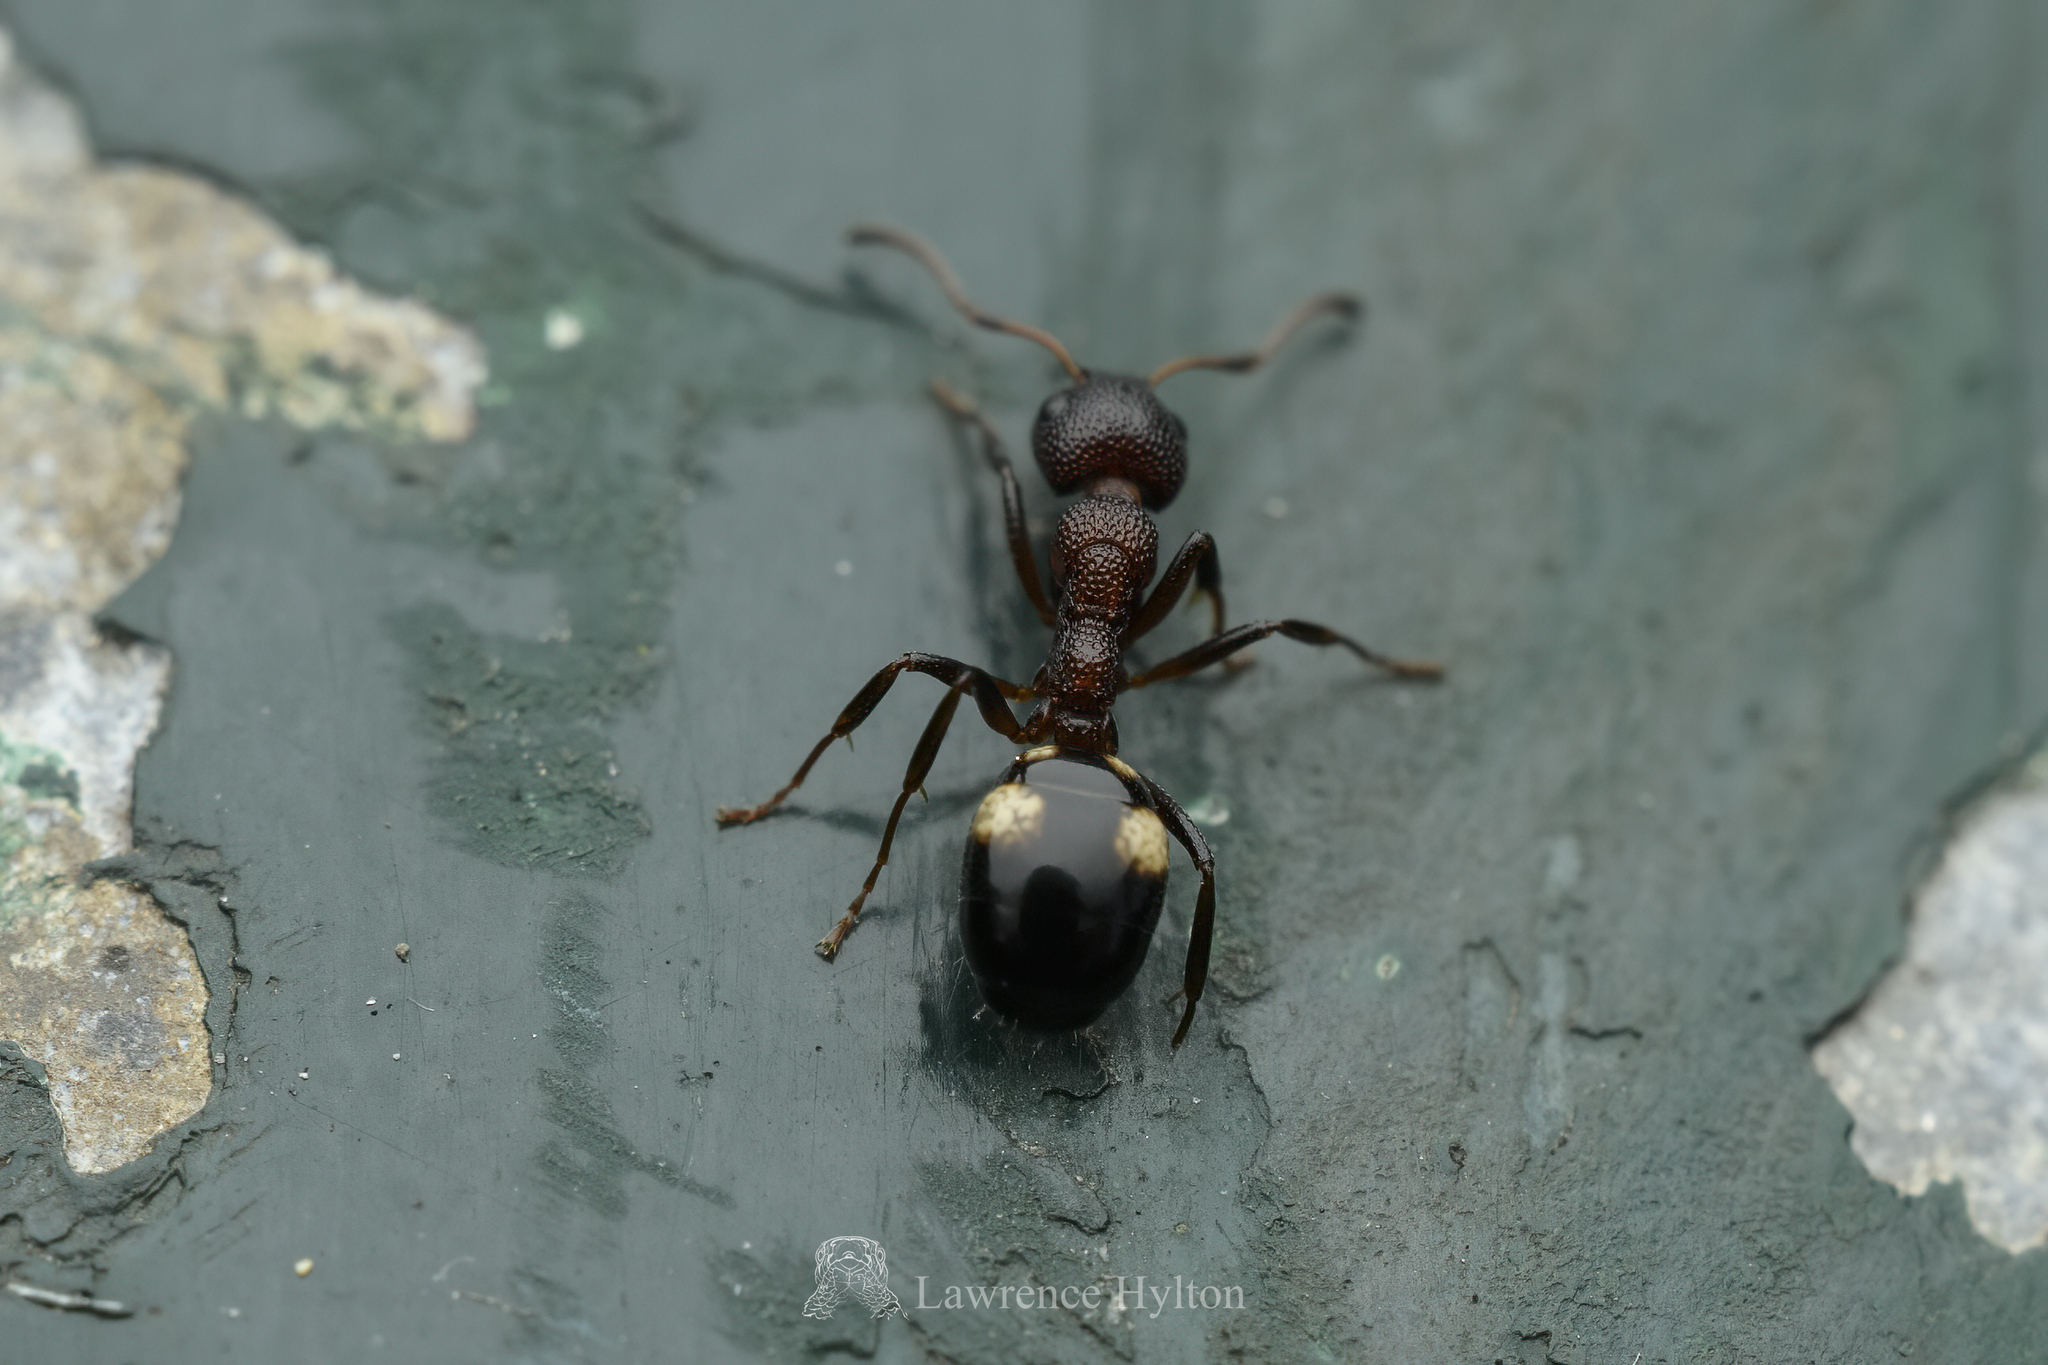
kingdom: Animalia
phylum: Arthropoda
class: Insecta
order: Hymenoptera
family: Formicidae
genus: Dolichoderus
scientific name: Dolichoderus sibiricus
